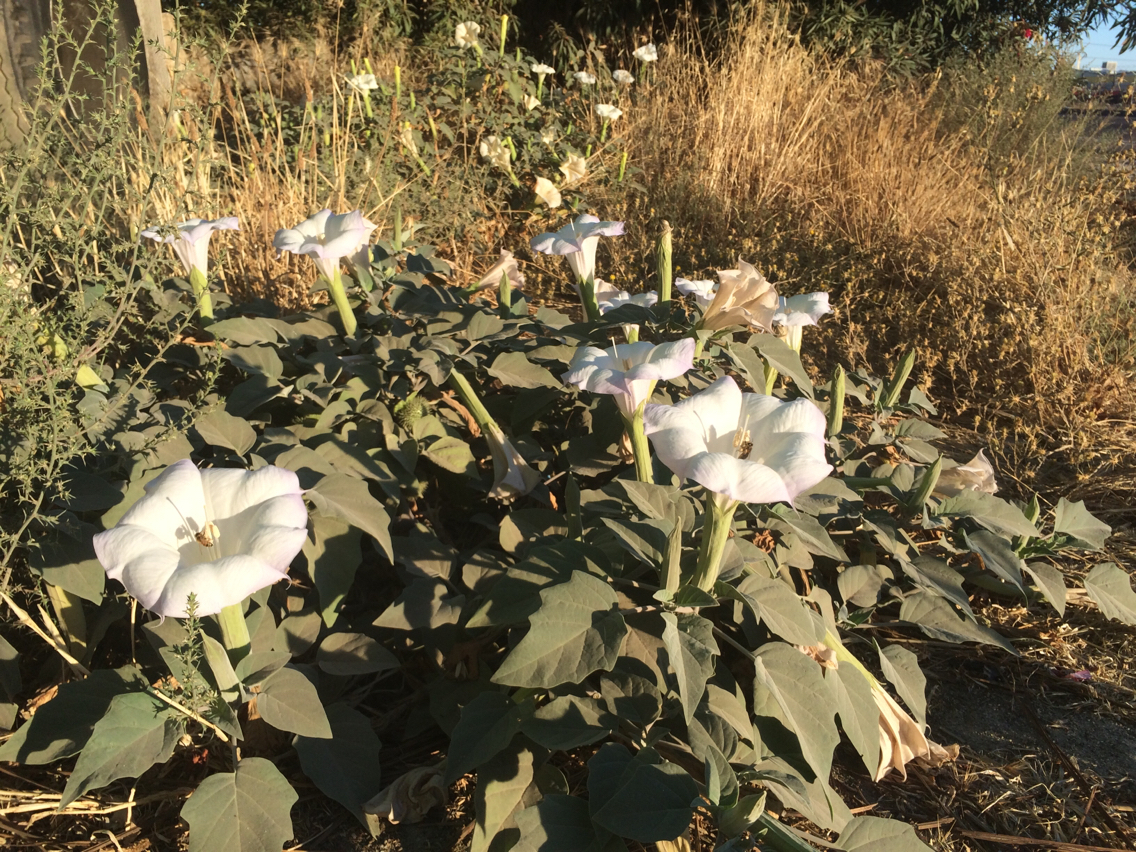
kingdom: Plantae
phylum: Tracheophyta
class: Magnoliopsida
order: Solanales
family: Solanaceae
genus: Datura
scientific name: Datura wrightii
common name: Sacred thorn-apple
